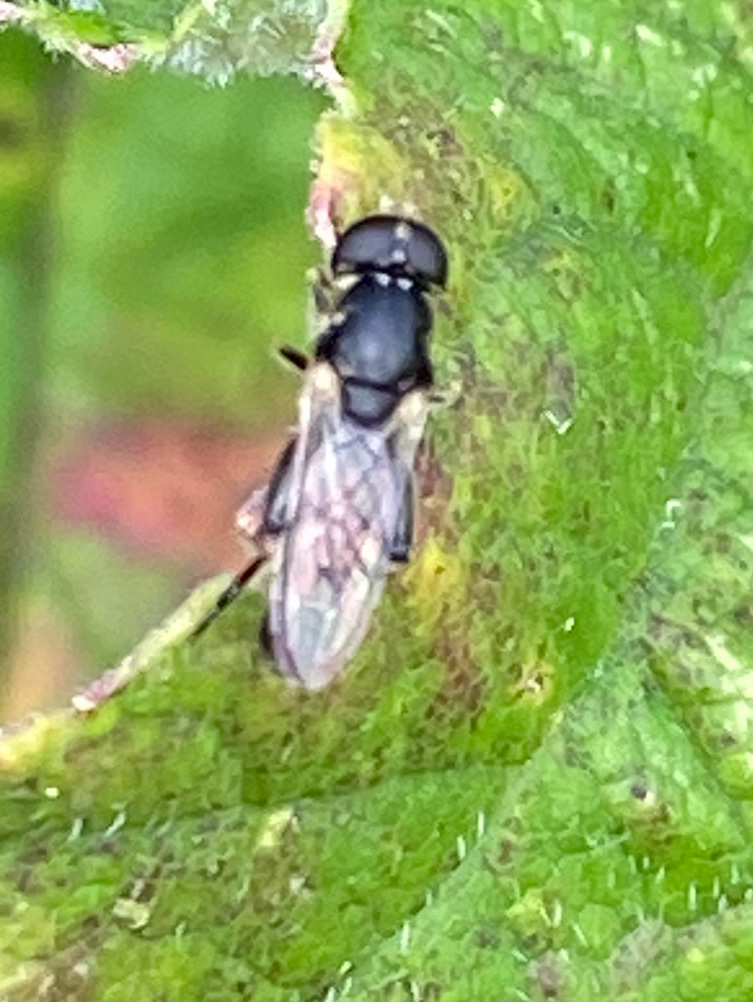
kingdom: Animalia
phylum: Arthropoda
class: Insecta
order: Diptera
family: Syrphidae
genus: Syritta
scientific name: Syritta pipiens
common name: Hover fly
